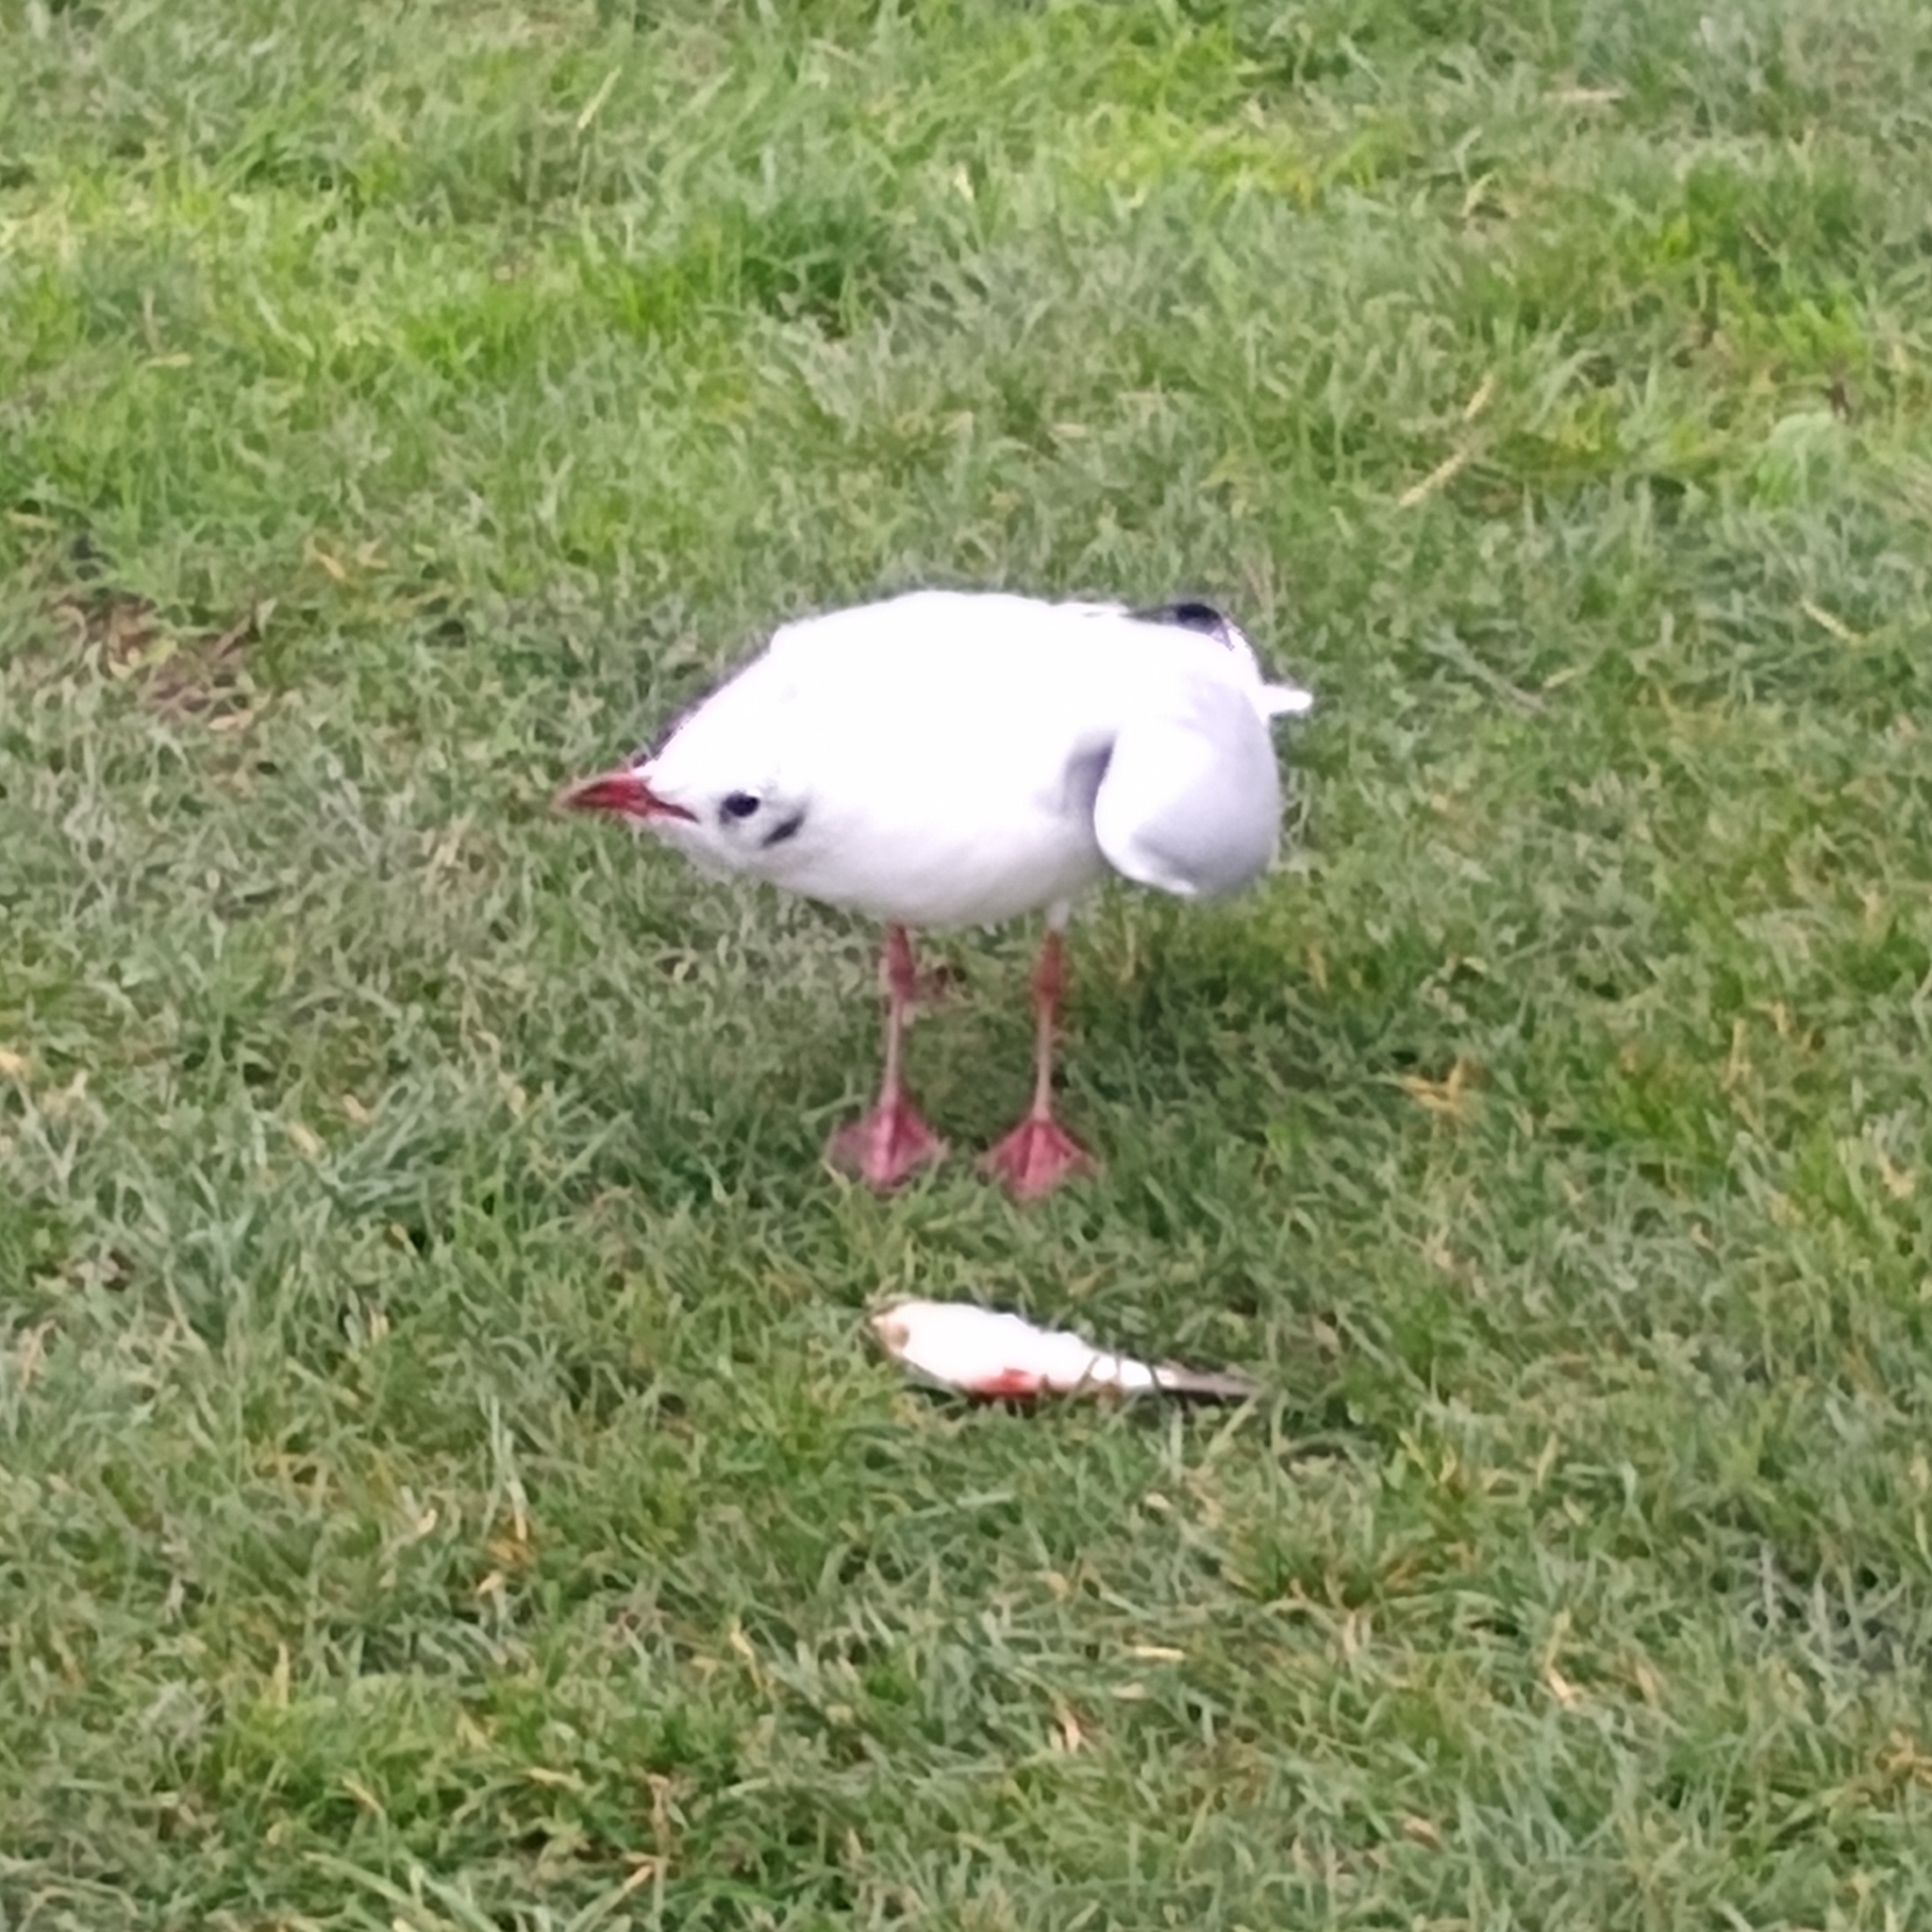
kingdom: Animalia
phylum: Chordata
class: Aves
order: Charadriiformes
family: Laridae
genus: Chroicocephalus
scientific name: Chroicocephalus ridibundus
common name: Black-headed gull
